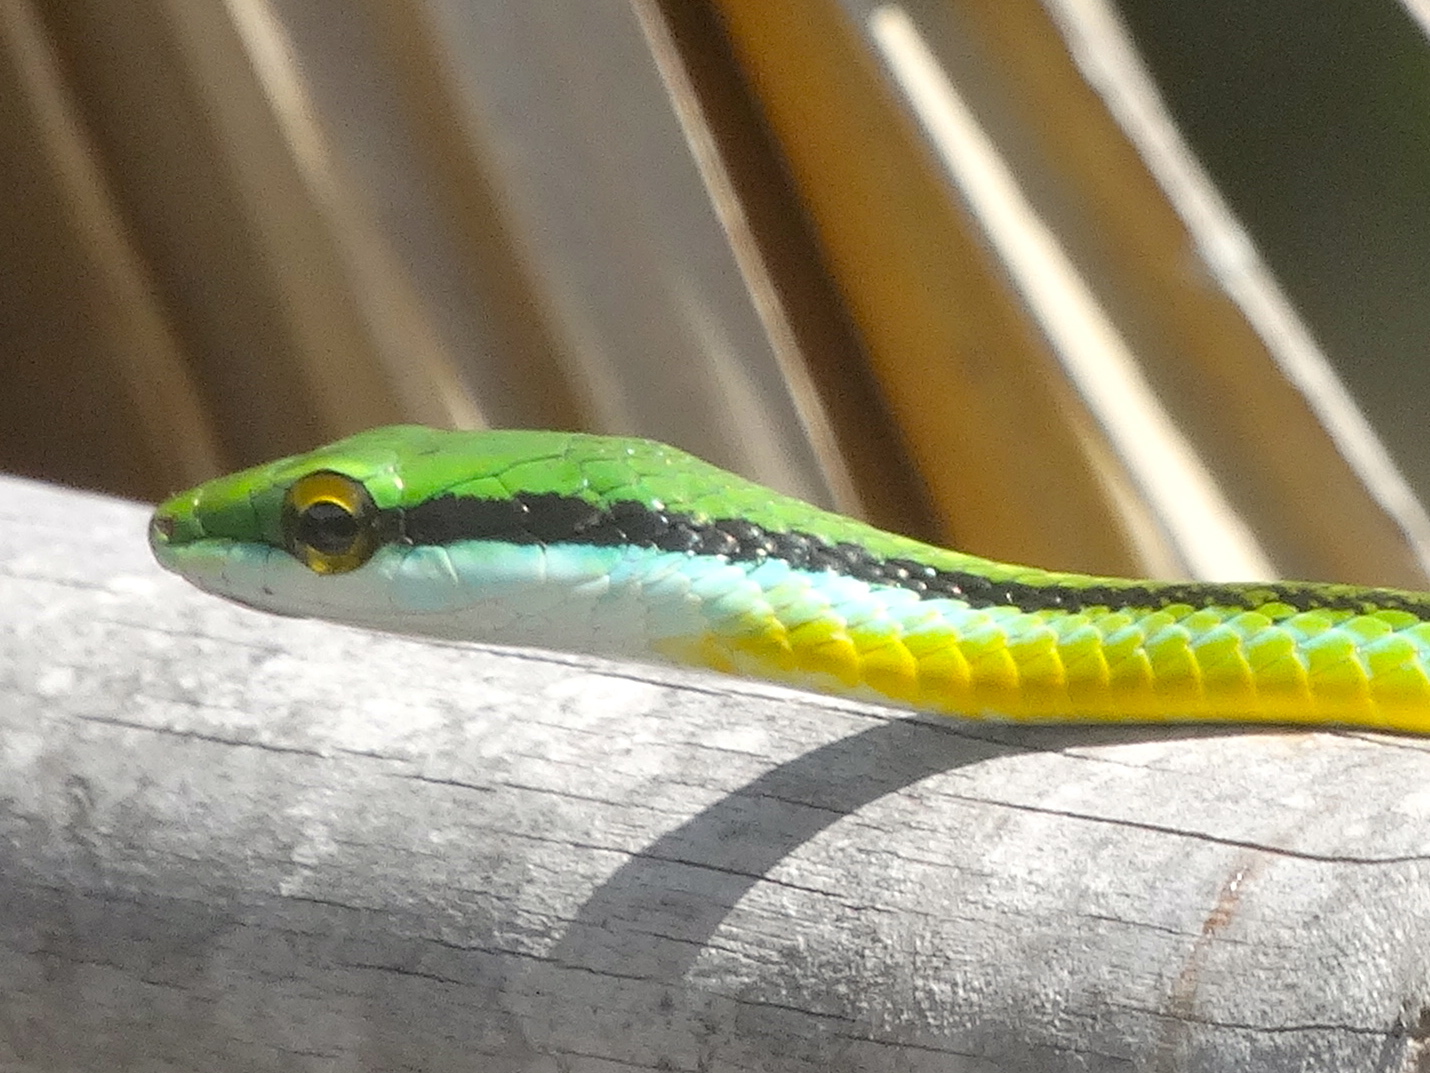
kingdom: Animalia
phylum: Chordata
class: Squamata
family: Colubridae
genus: Leptophis
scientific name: Leptophis diplotropis
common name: Pacific coast parrot snake
